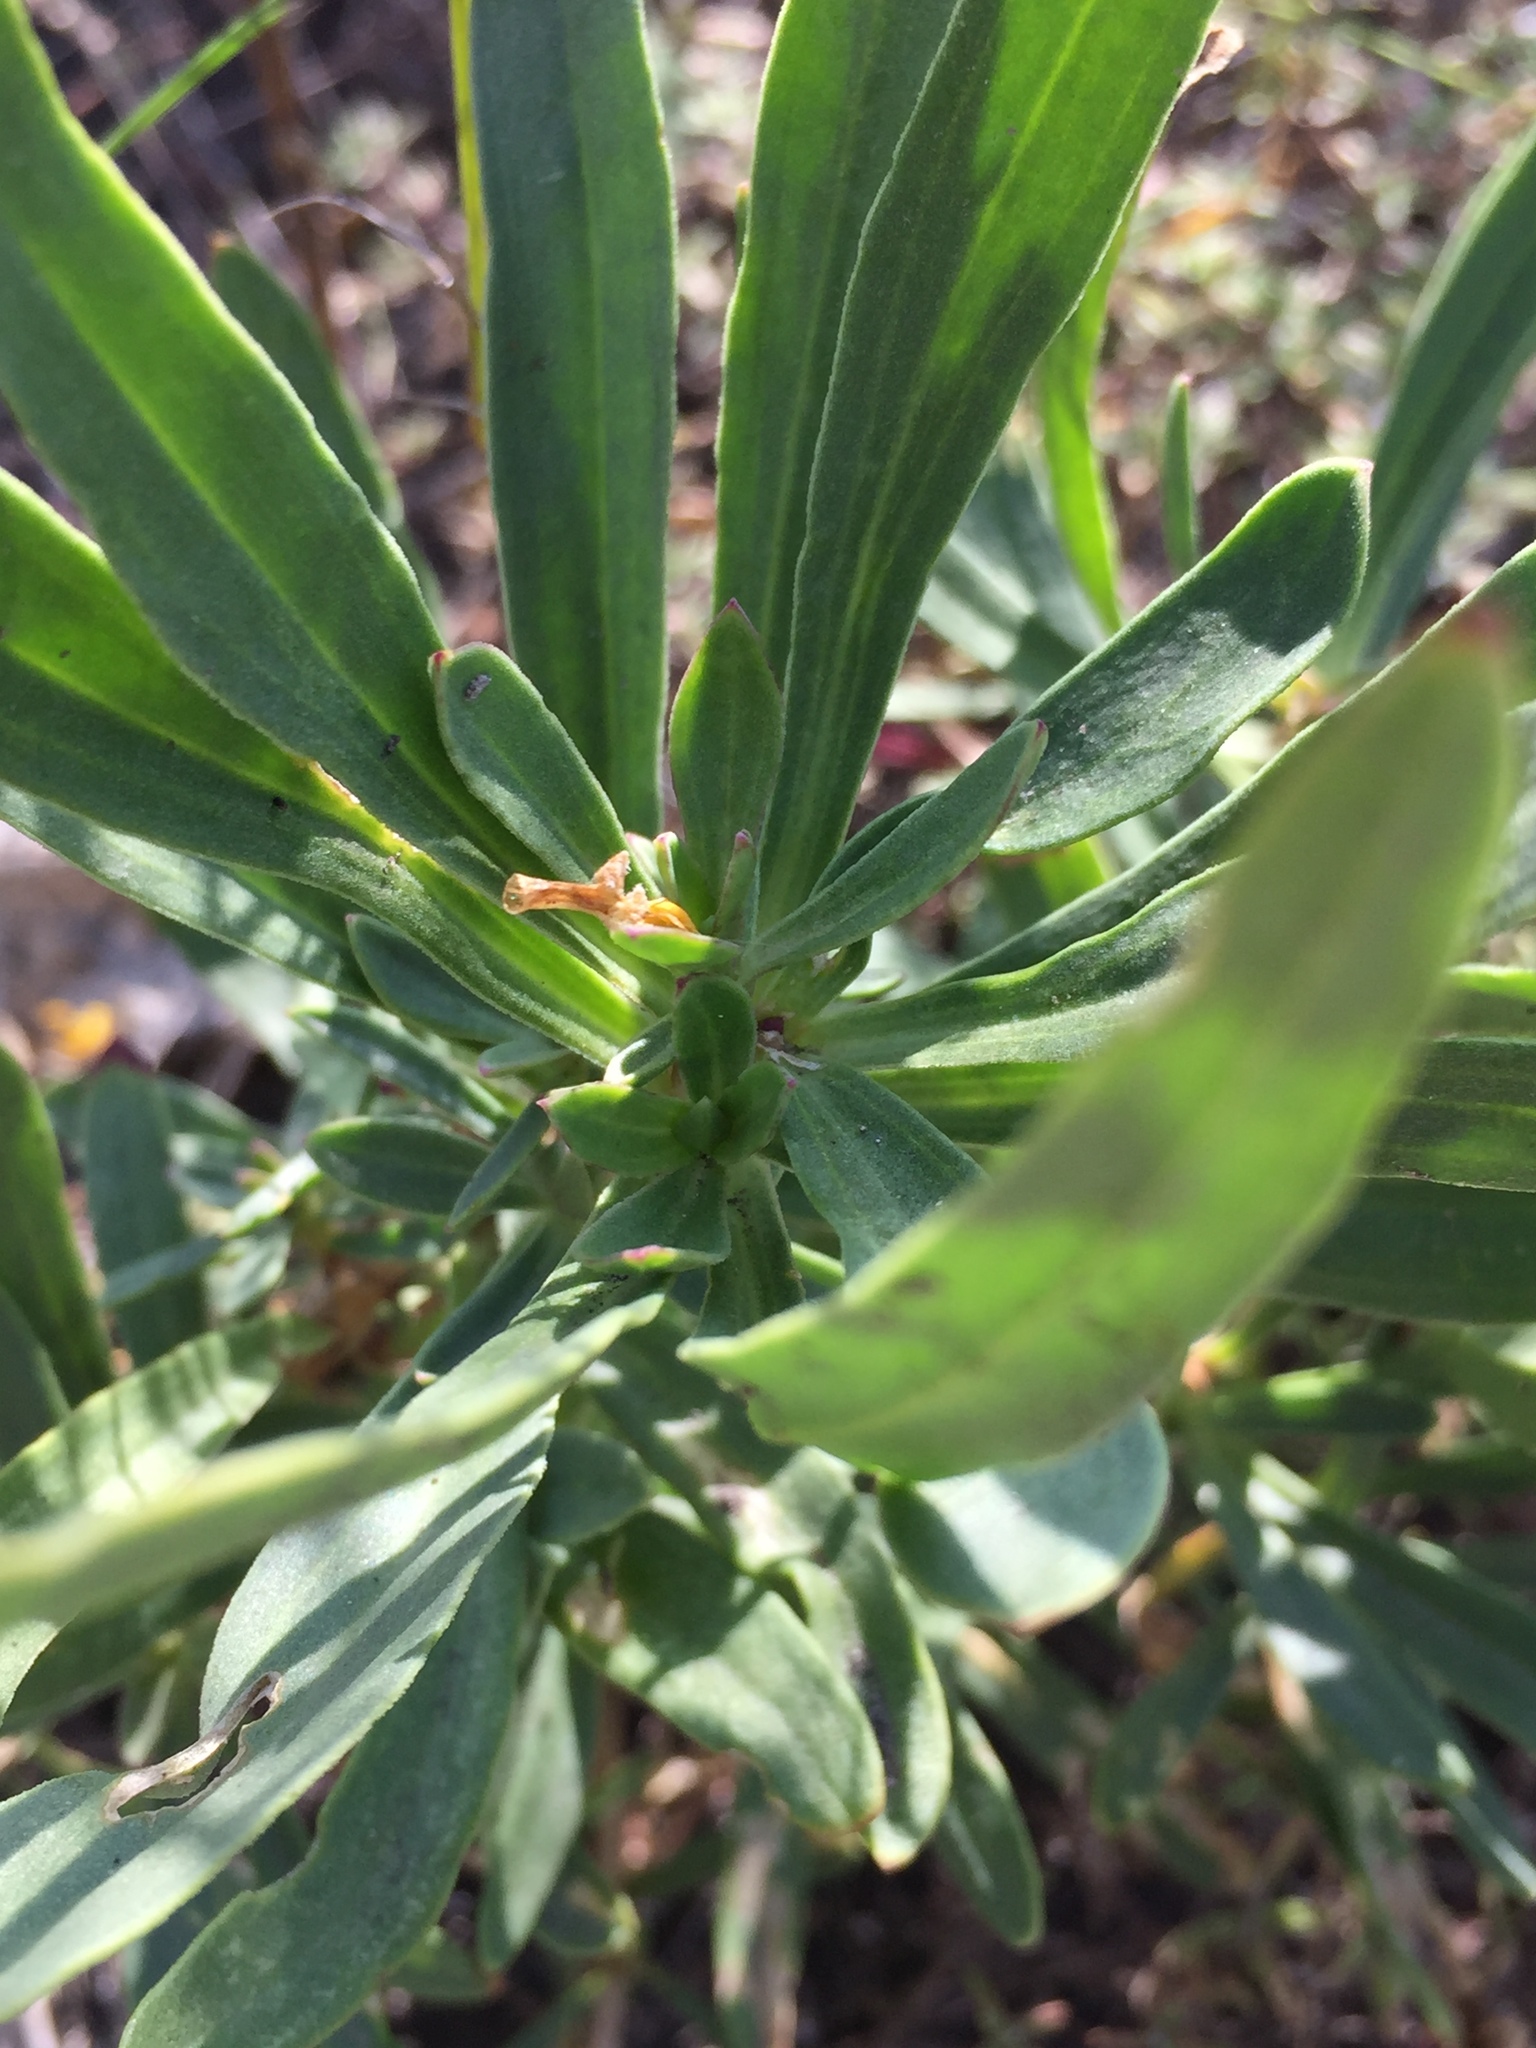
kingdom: Plantae
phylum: Tracheophyta
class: Magnoliopsida
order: Caryophyllales
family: Caryophyllaceae
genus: Gypsophila
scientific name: Gypsophila altissima
